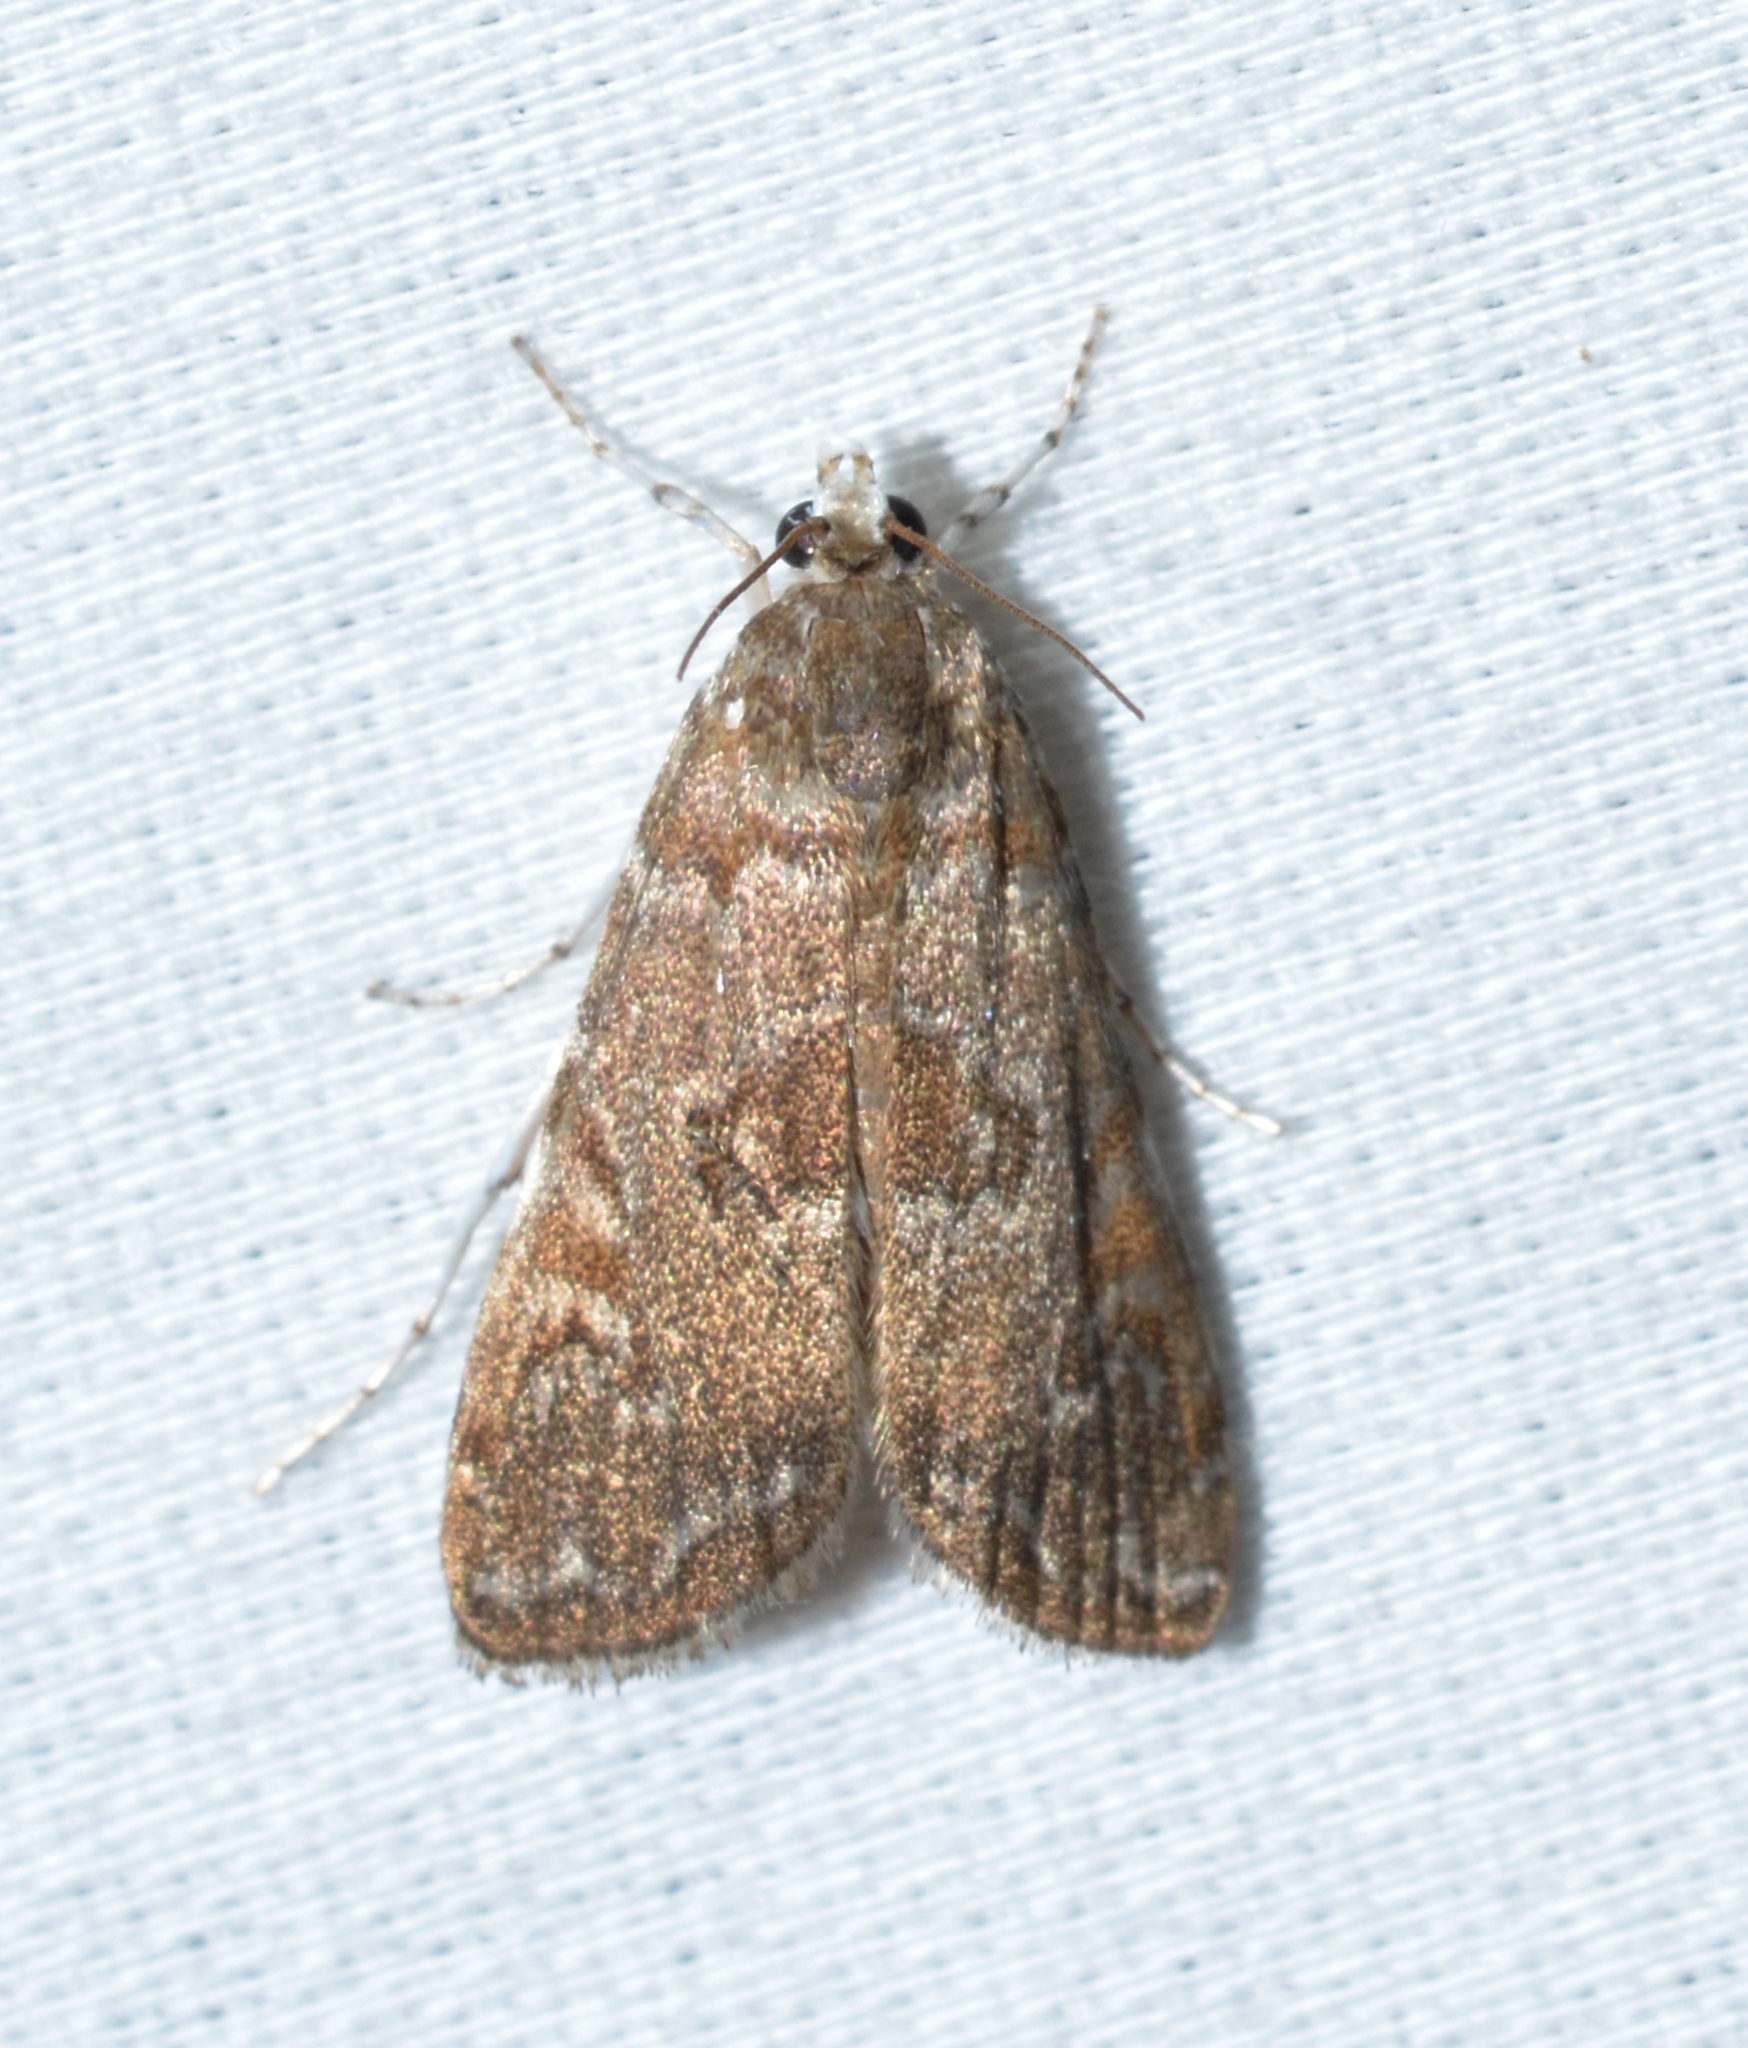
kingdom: Animalia
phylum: Arthropoda
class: Insecta
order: Lepidoptera
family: Crambidae
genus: Elophila
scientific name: Elophila gyralis
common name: Waterlily borer moth
